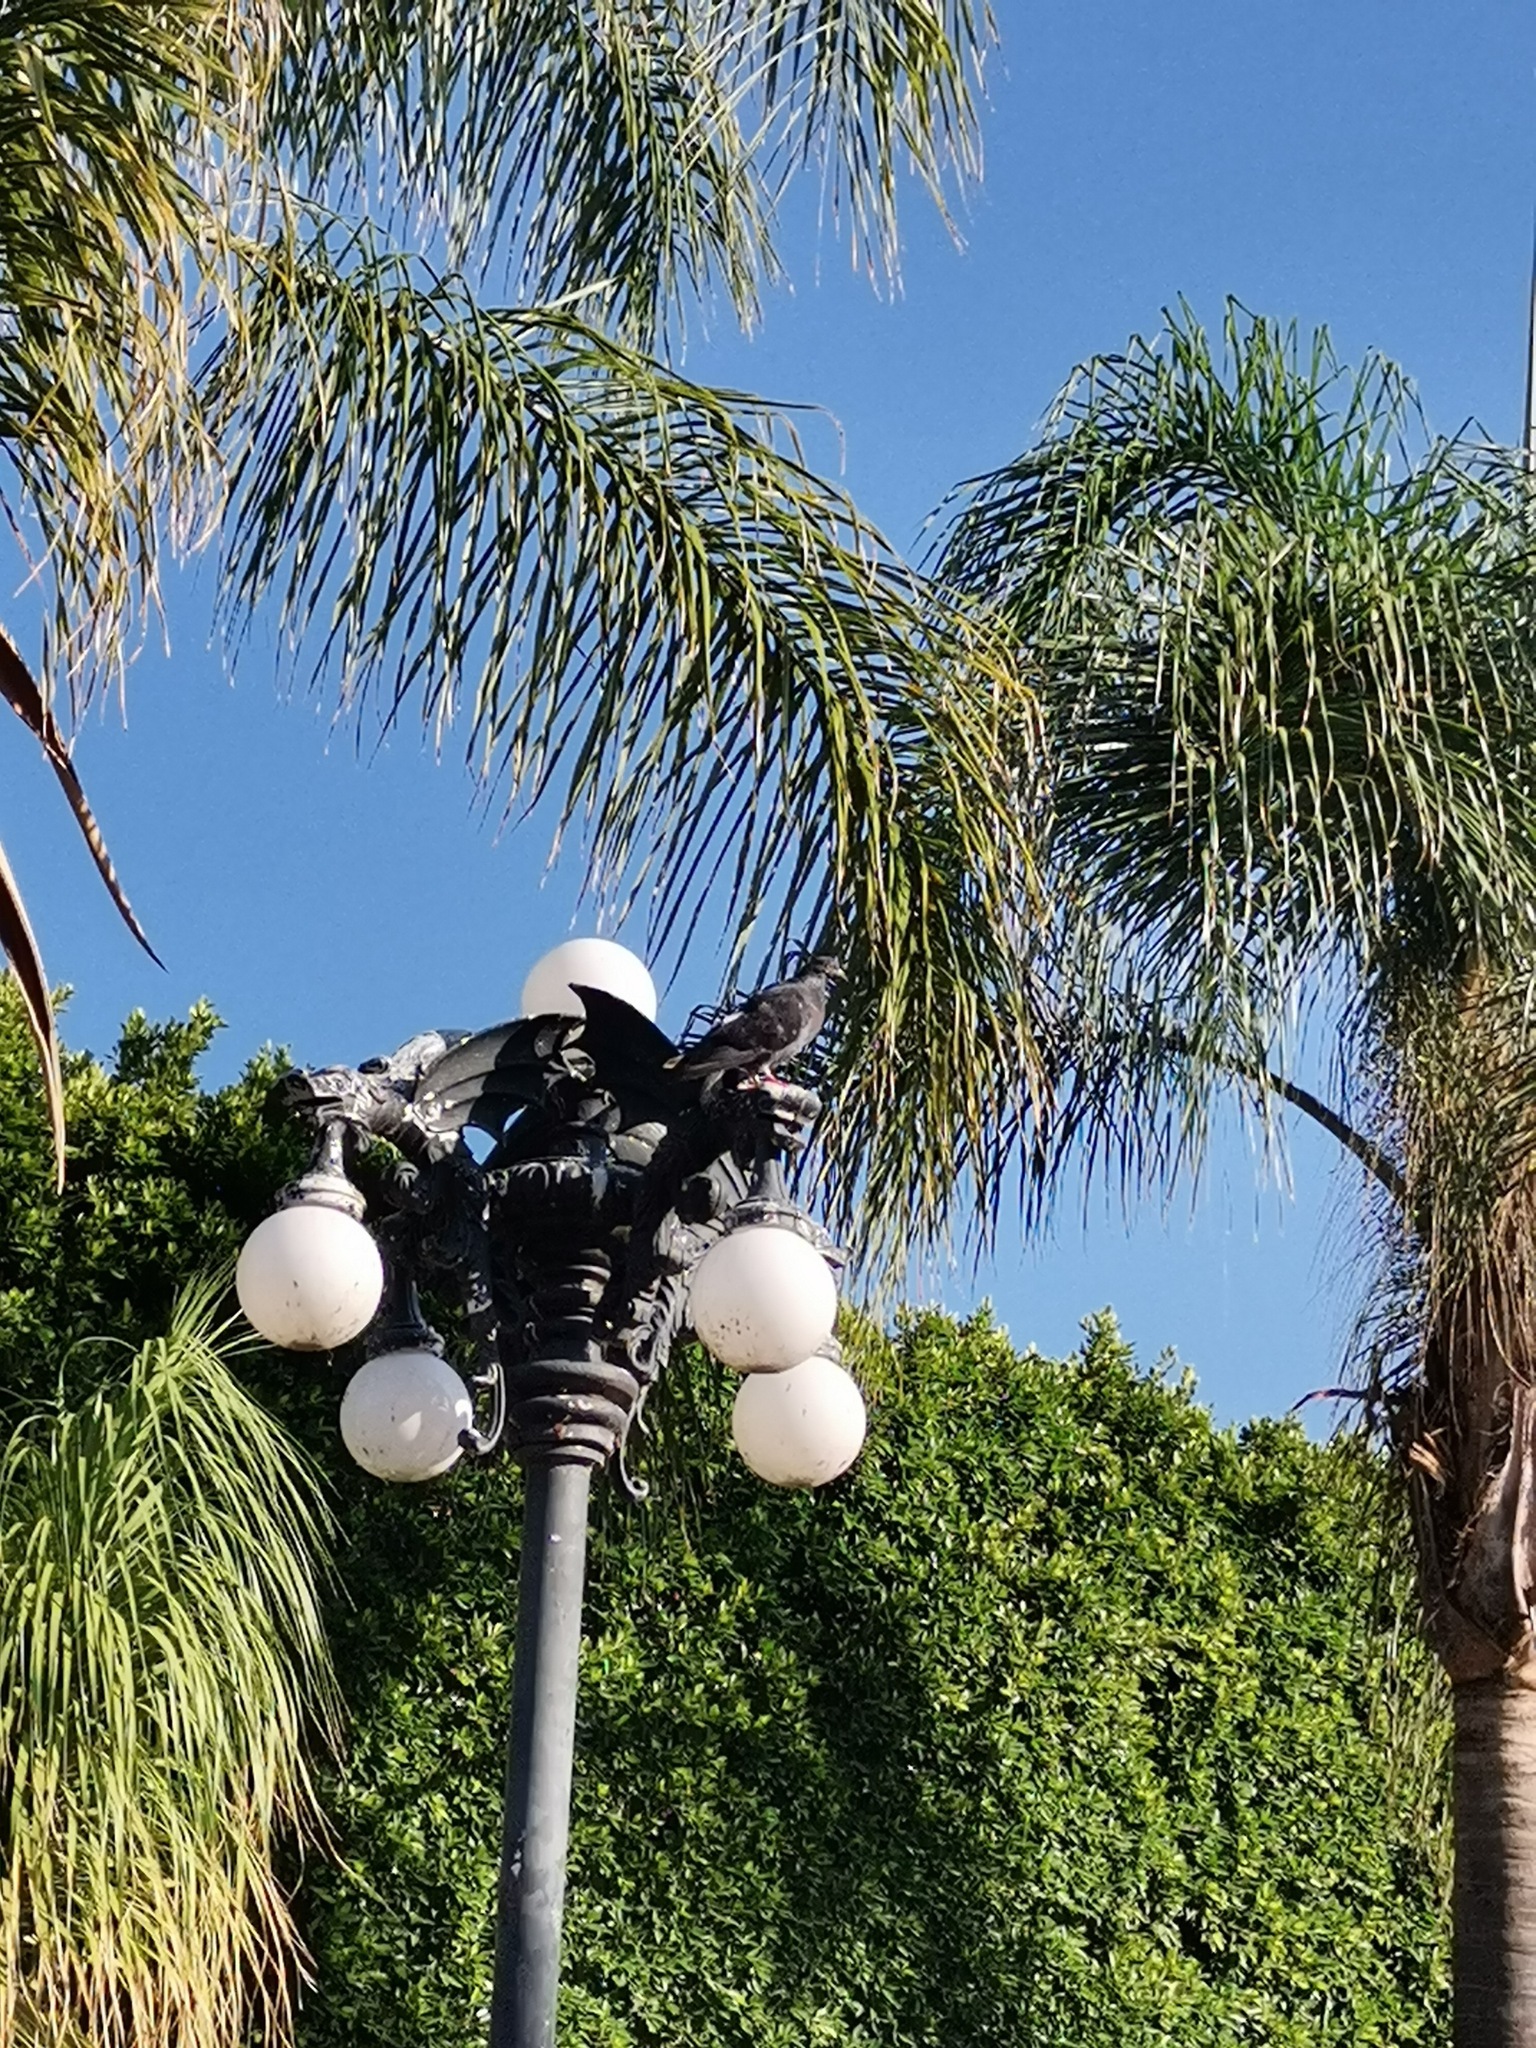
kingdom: Animalia
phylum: Chordata
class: Aves
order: Columbiformes
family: Columbidae
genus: Columba
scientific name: Columba livia
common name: Rock pigeon
